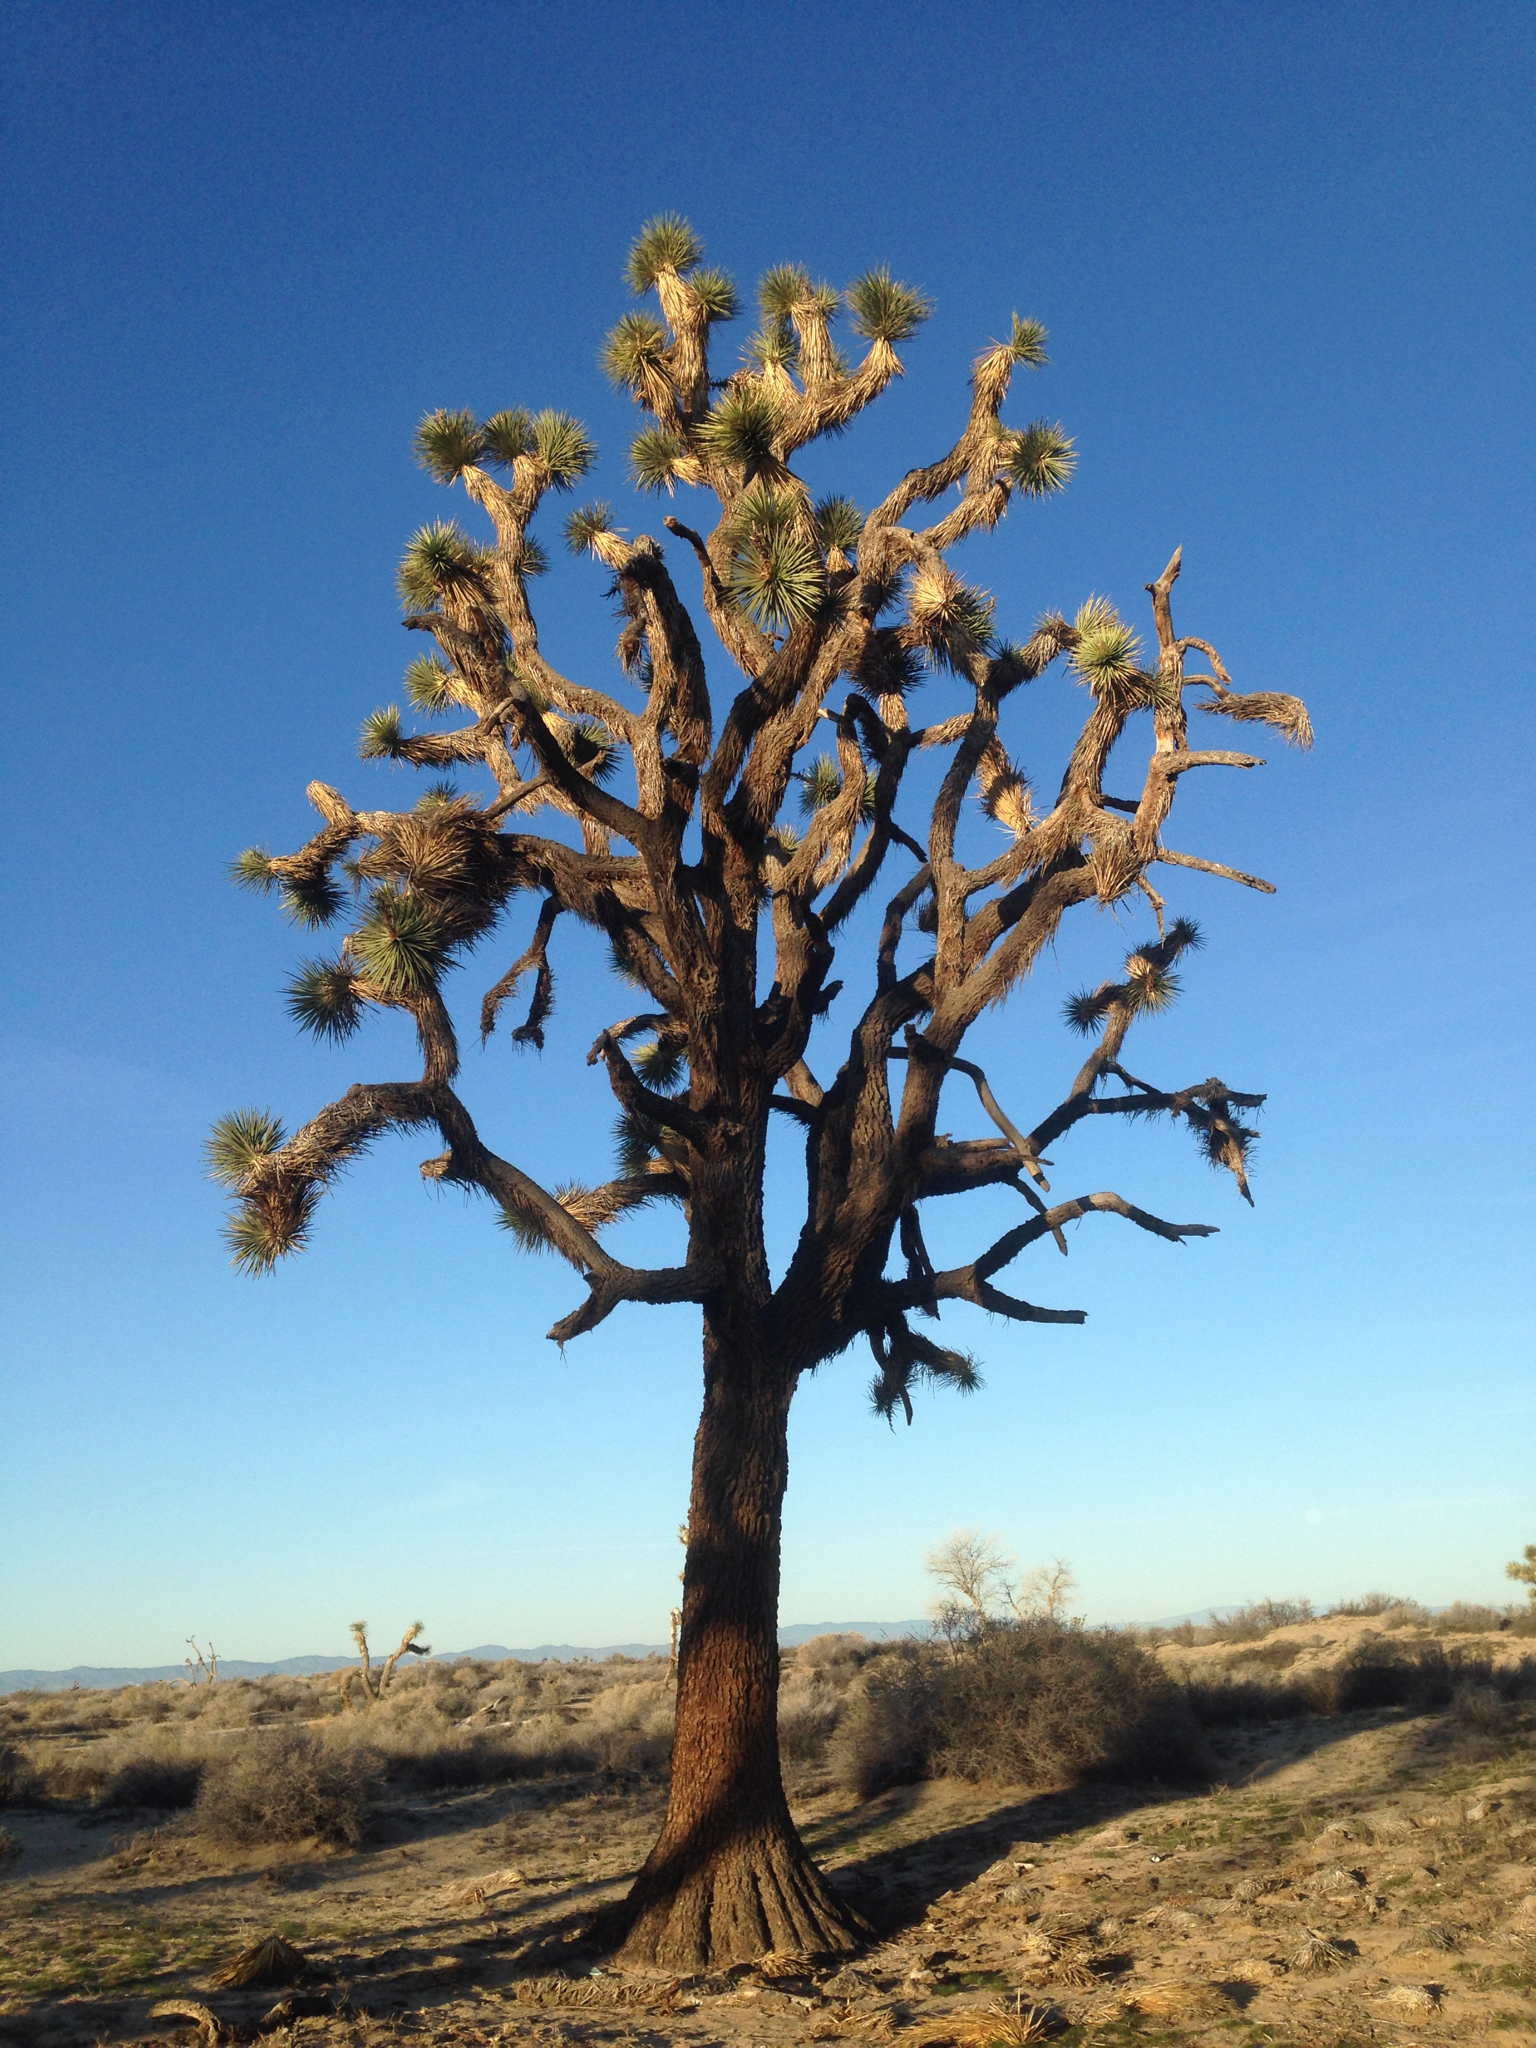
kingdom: Plantae
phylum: Tracheophyta
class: Liliopsida
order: Asparagales
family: Asparagaceae
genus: Yucca
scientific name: Yucca brevifolia
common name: Joshua tree
